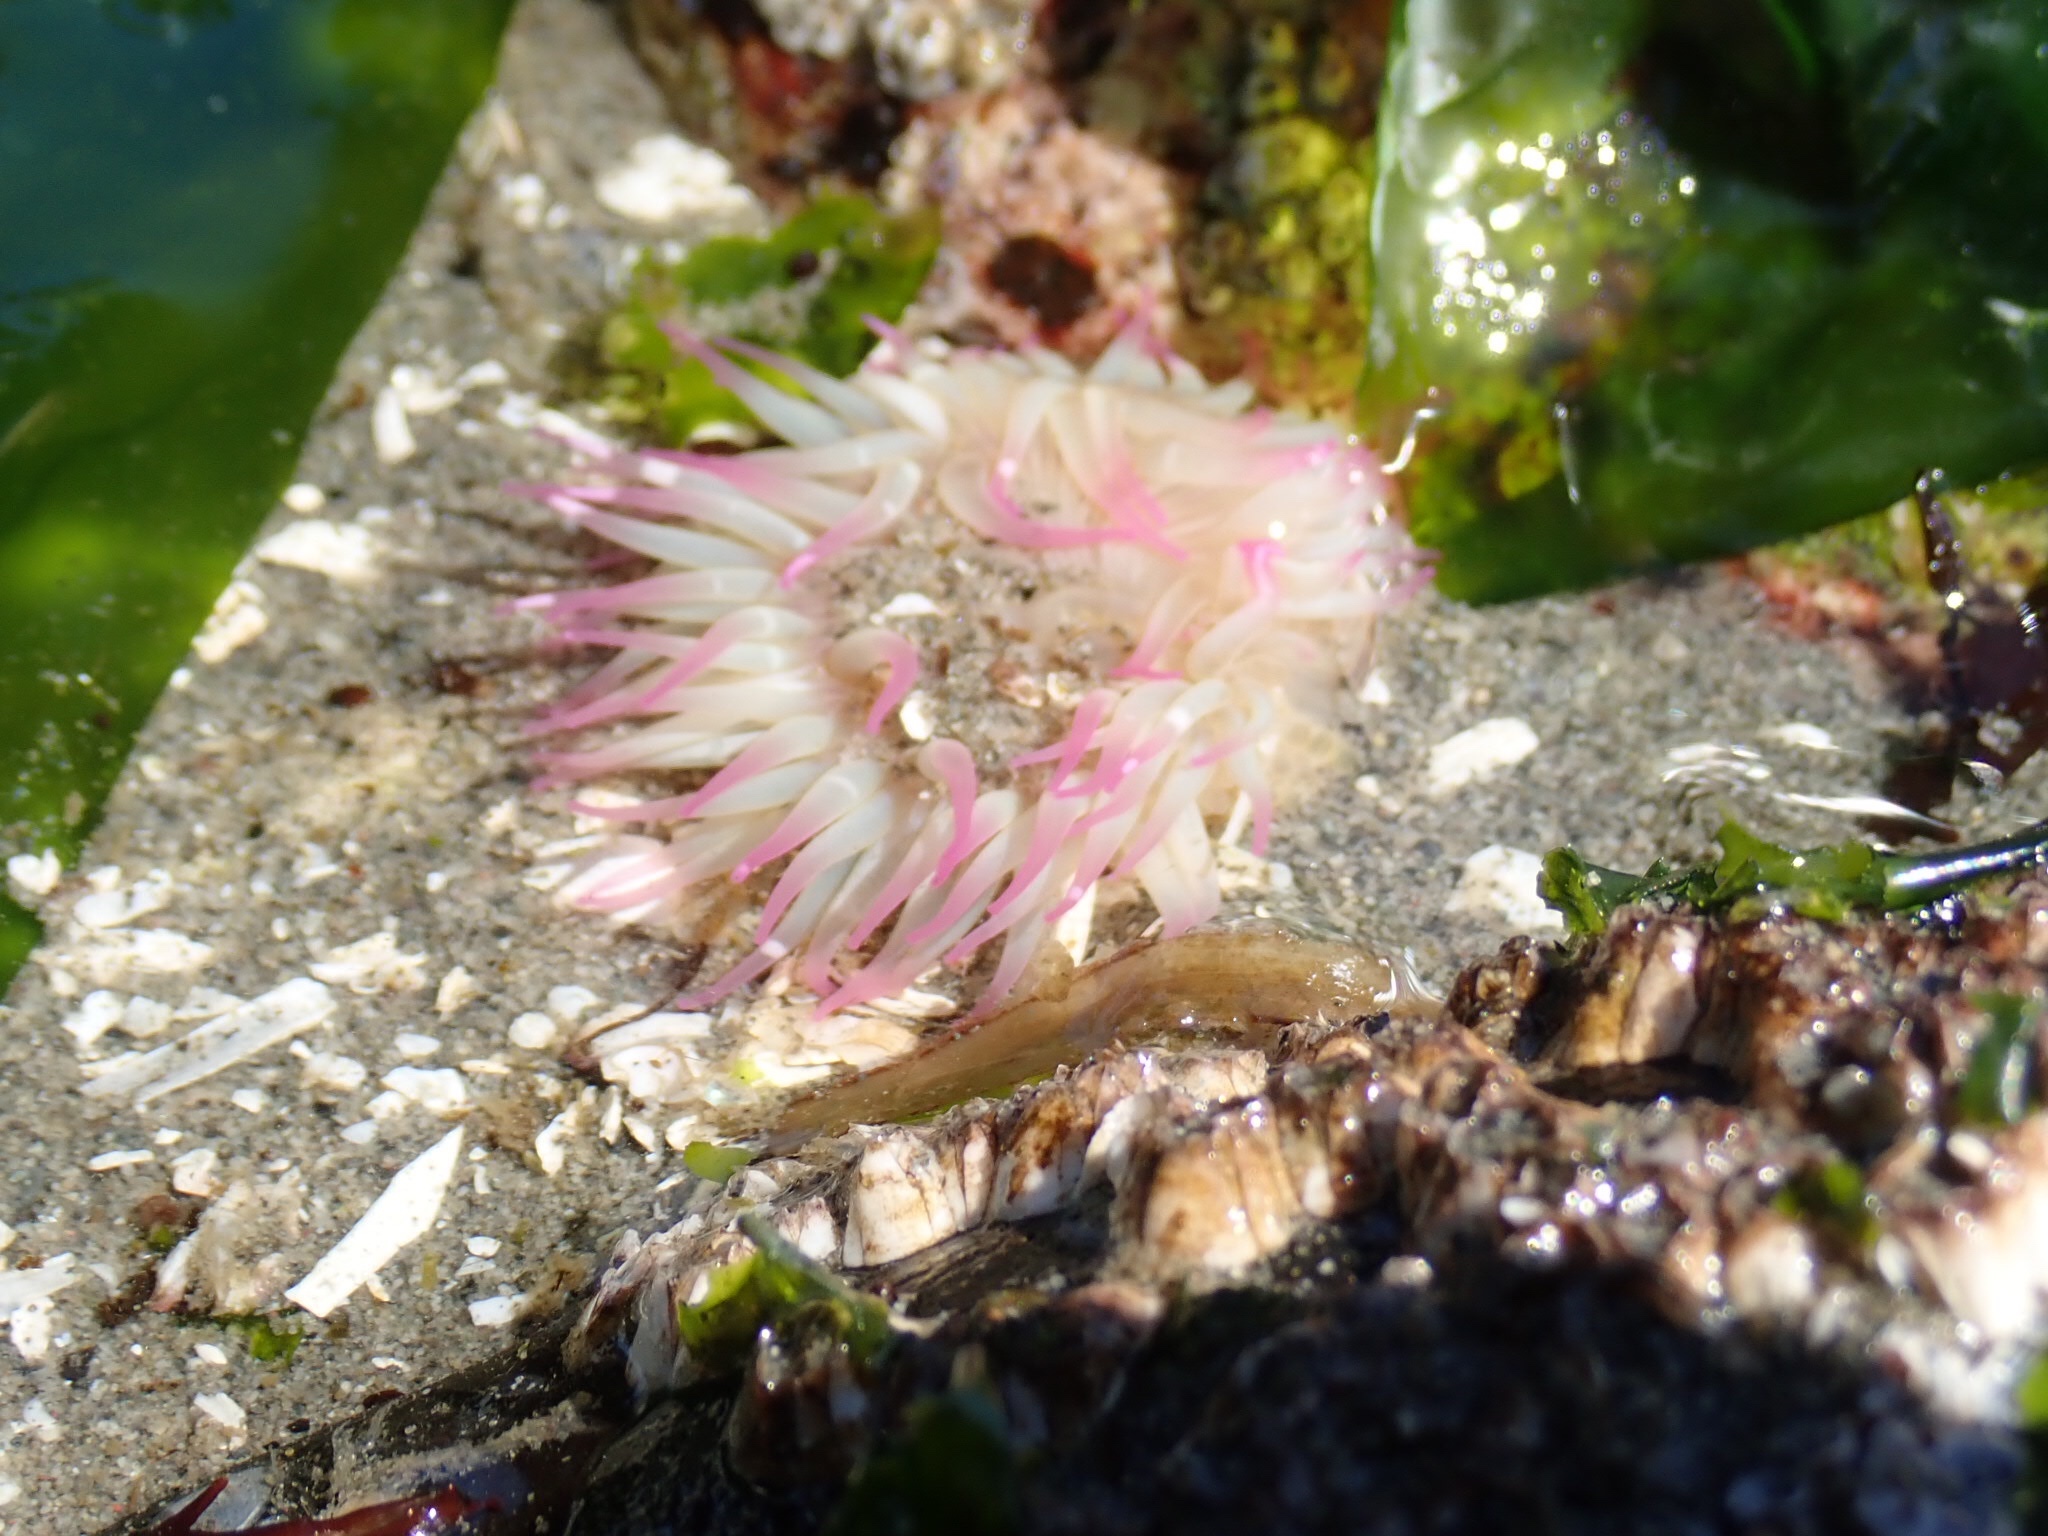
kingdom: Animalia
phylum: Cnidaria
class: Anthozoa
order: Actiniaria
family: Actiniidae
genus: Anthopleura
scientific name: Anthopleura elegantissima
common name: Clonal anemone
